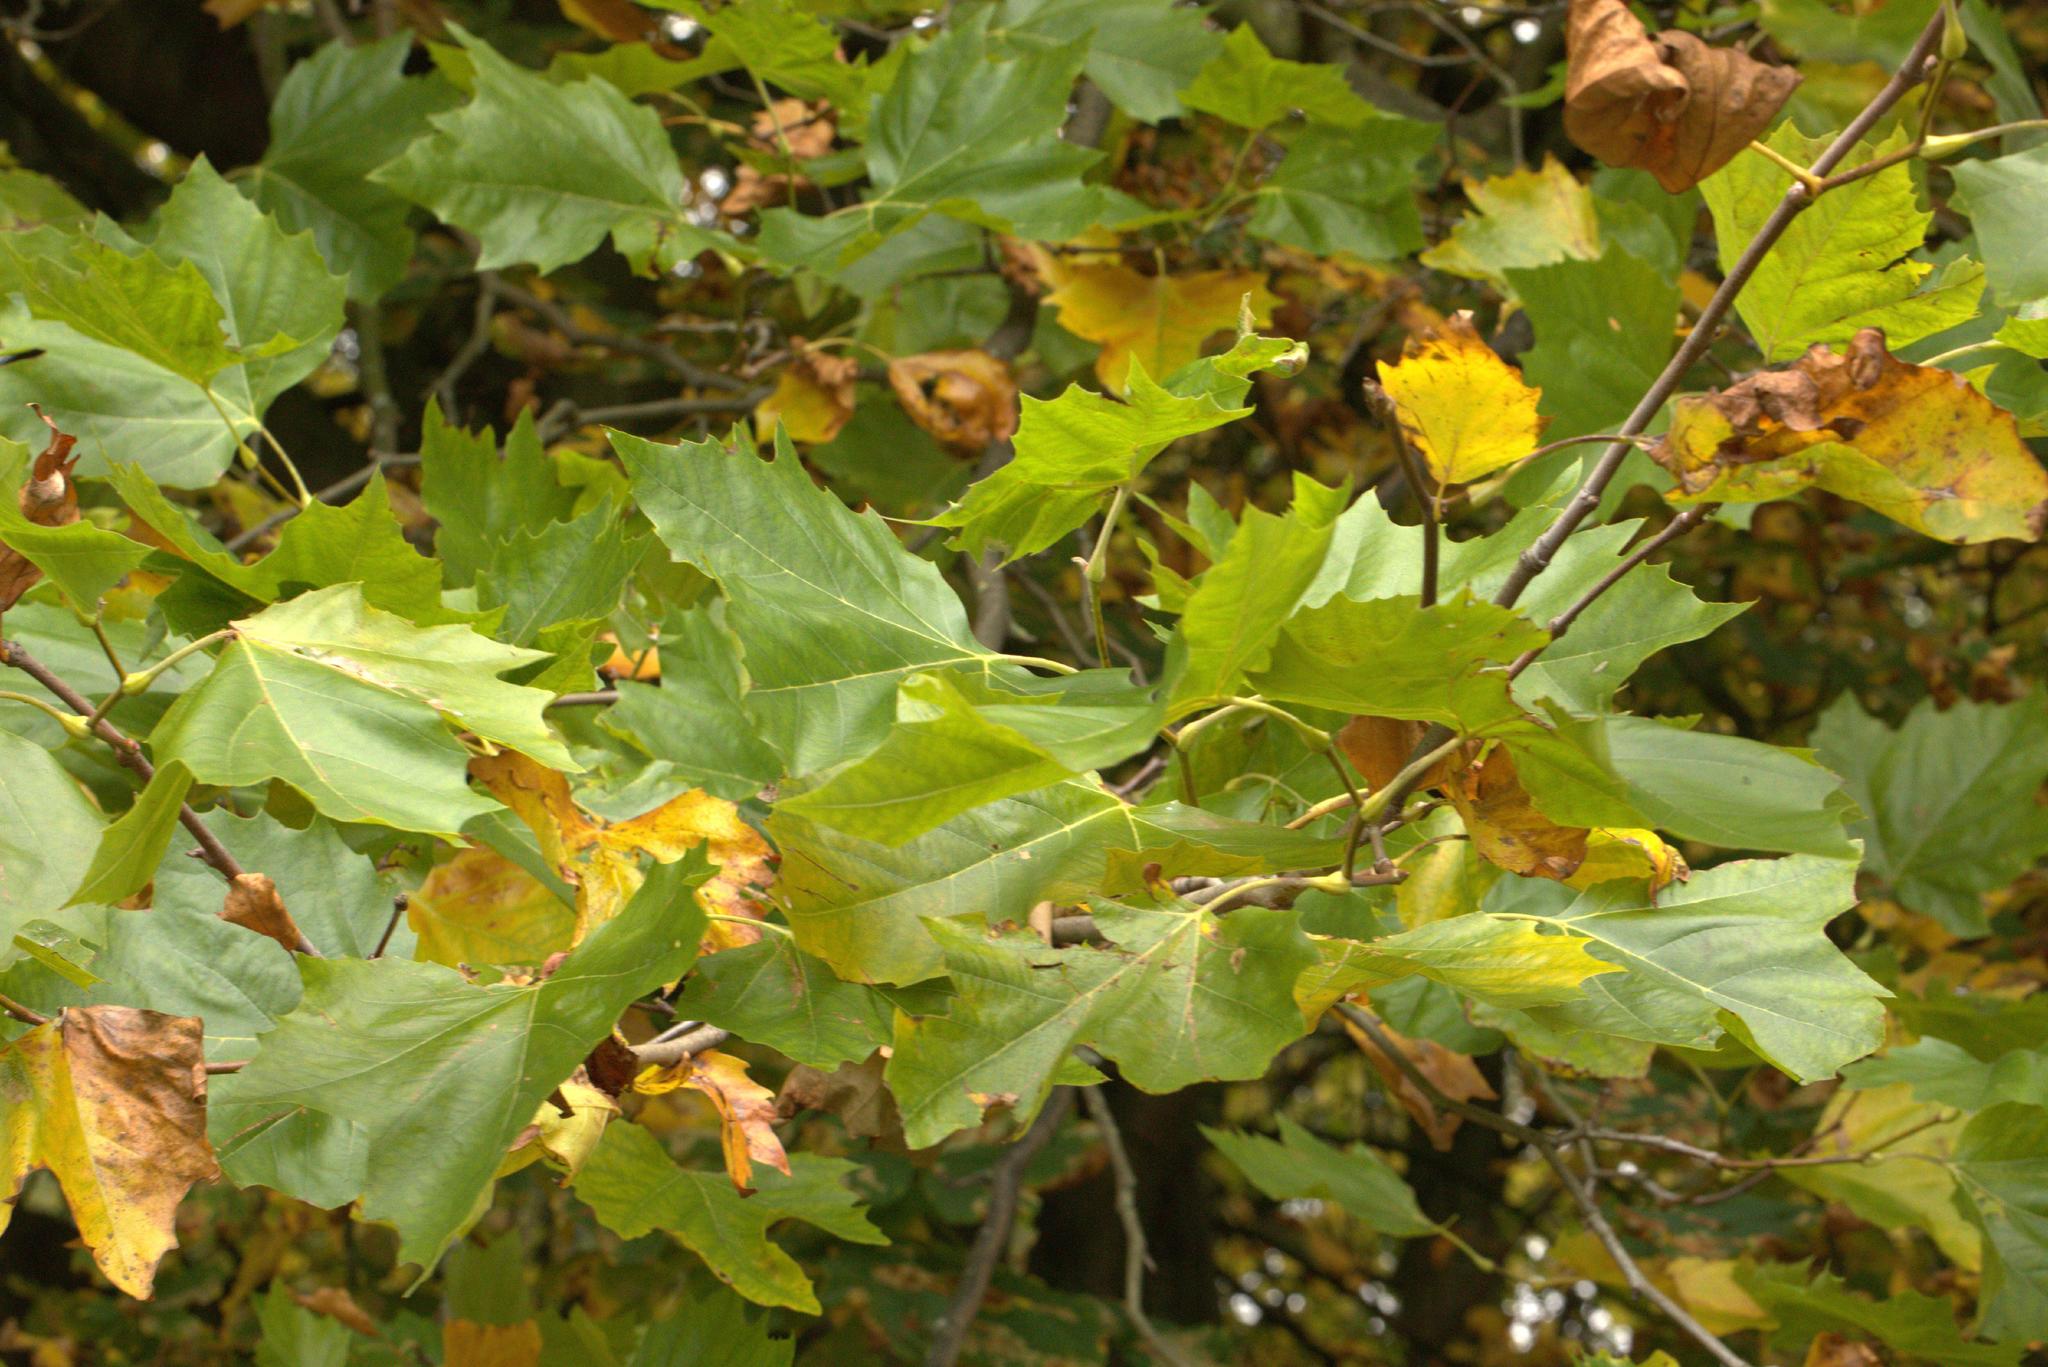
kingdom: Plantae
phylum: Tracheophyta
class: Magnoliopsida
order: Proteales
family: Platanaceae
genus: Platanus
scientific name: Platanus hispanica
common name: London plane
